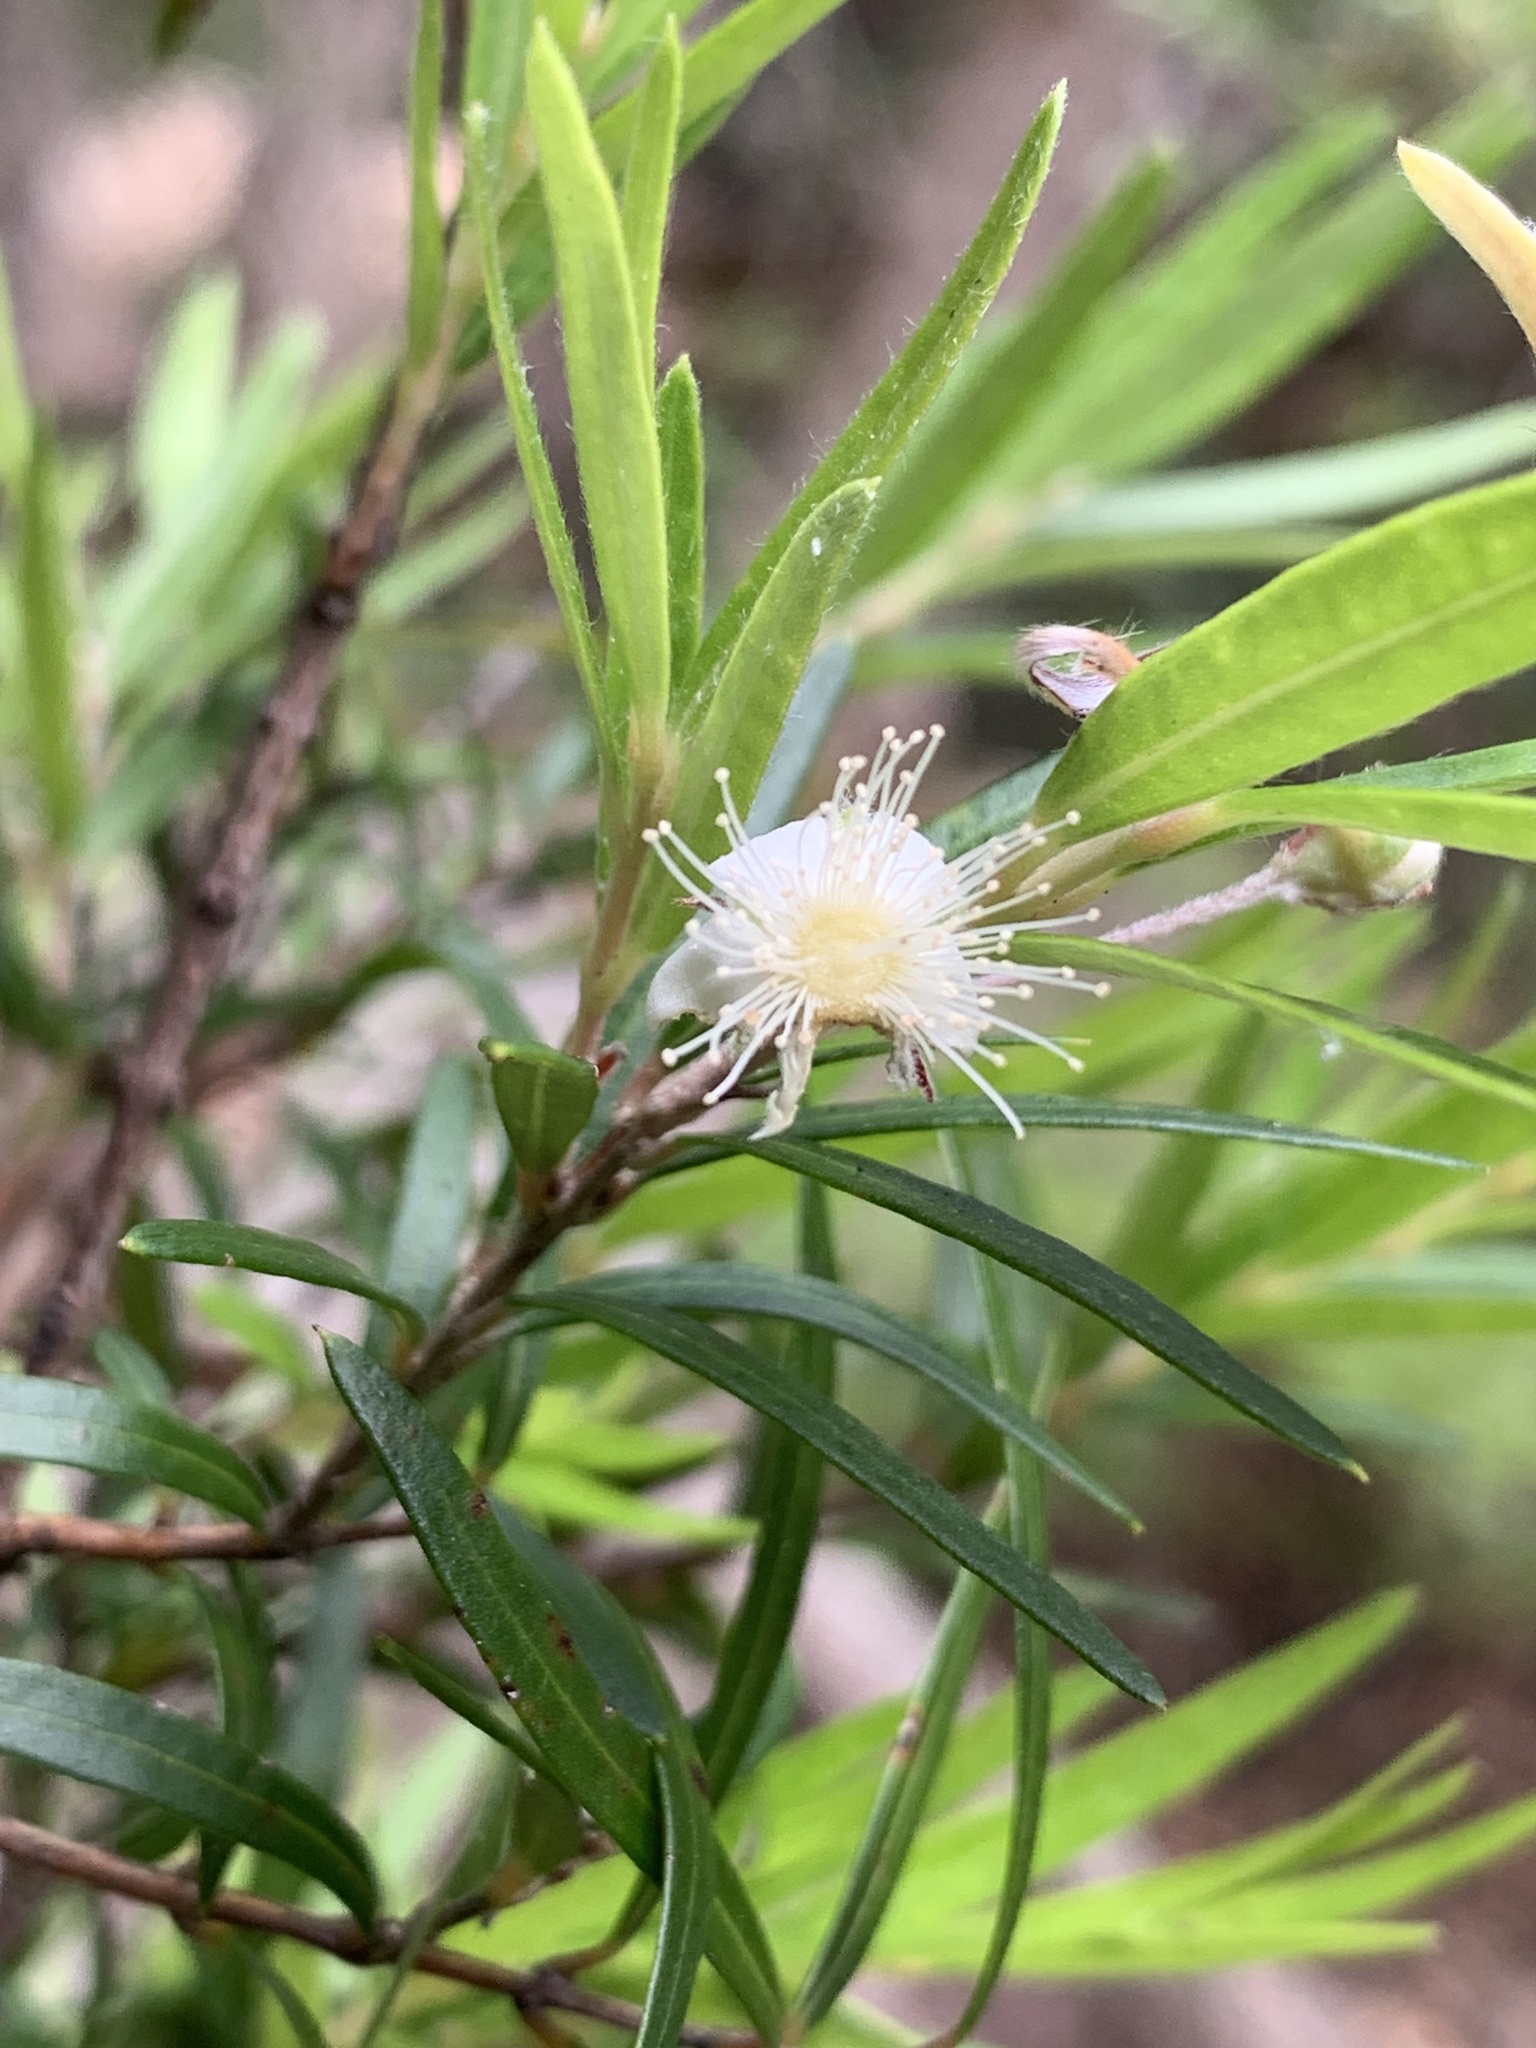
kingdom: Plantae
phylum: Tracheophyta
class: Magnoliopsida
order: Myrtales
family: Myrtaceae
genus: Austromyrtus
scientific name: Austromyrtus tenuifolia
